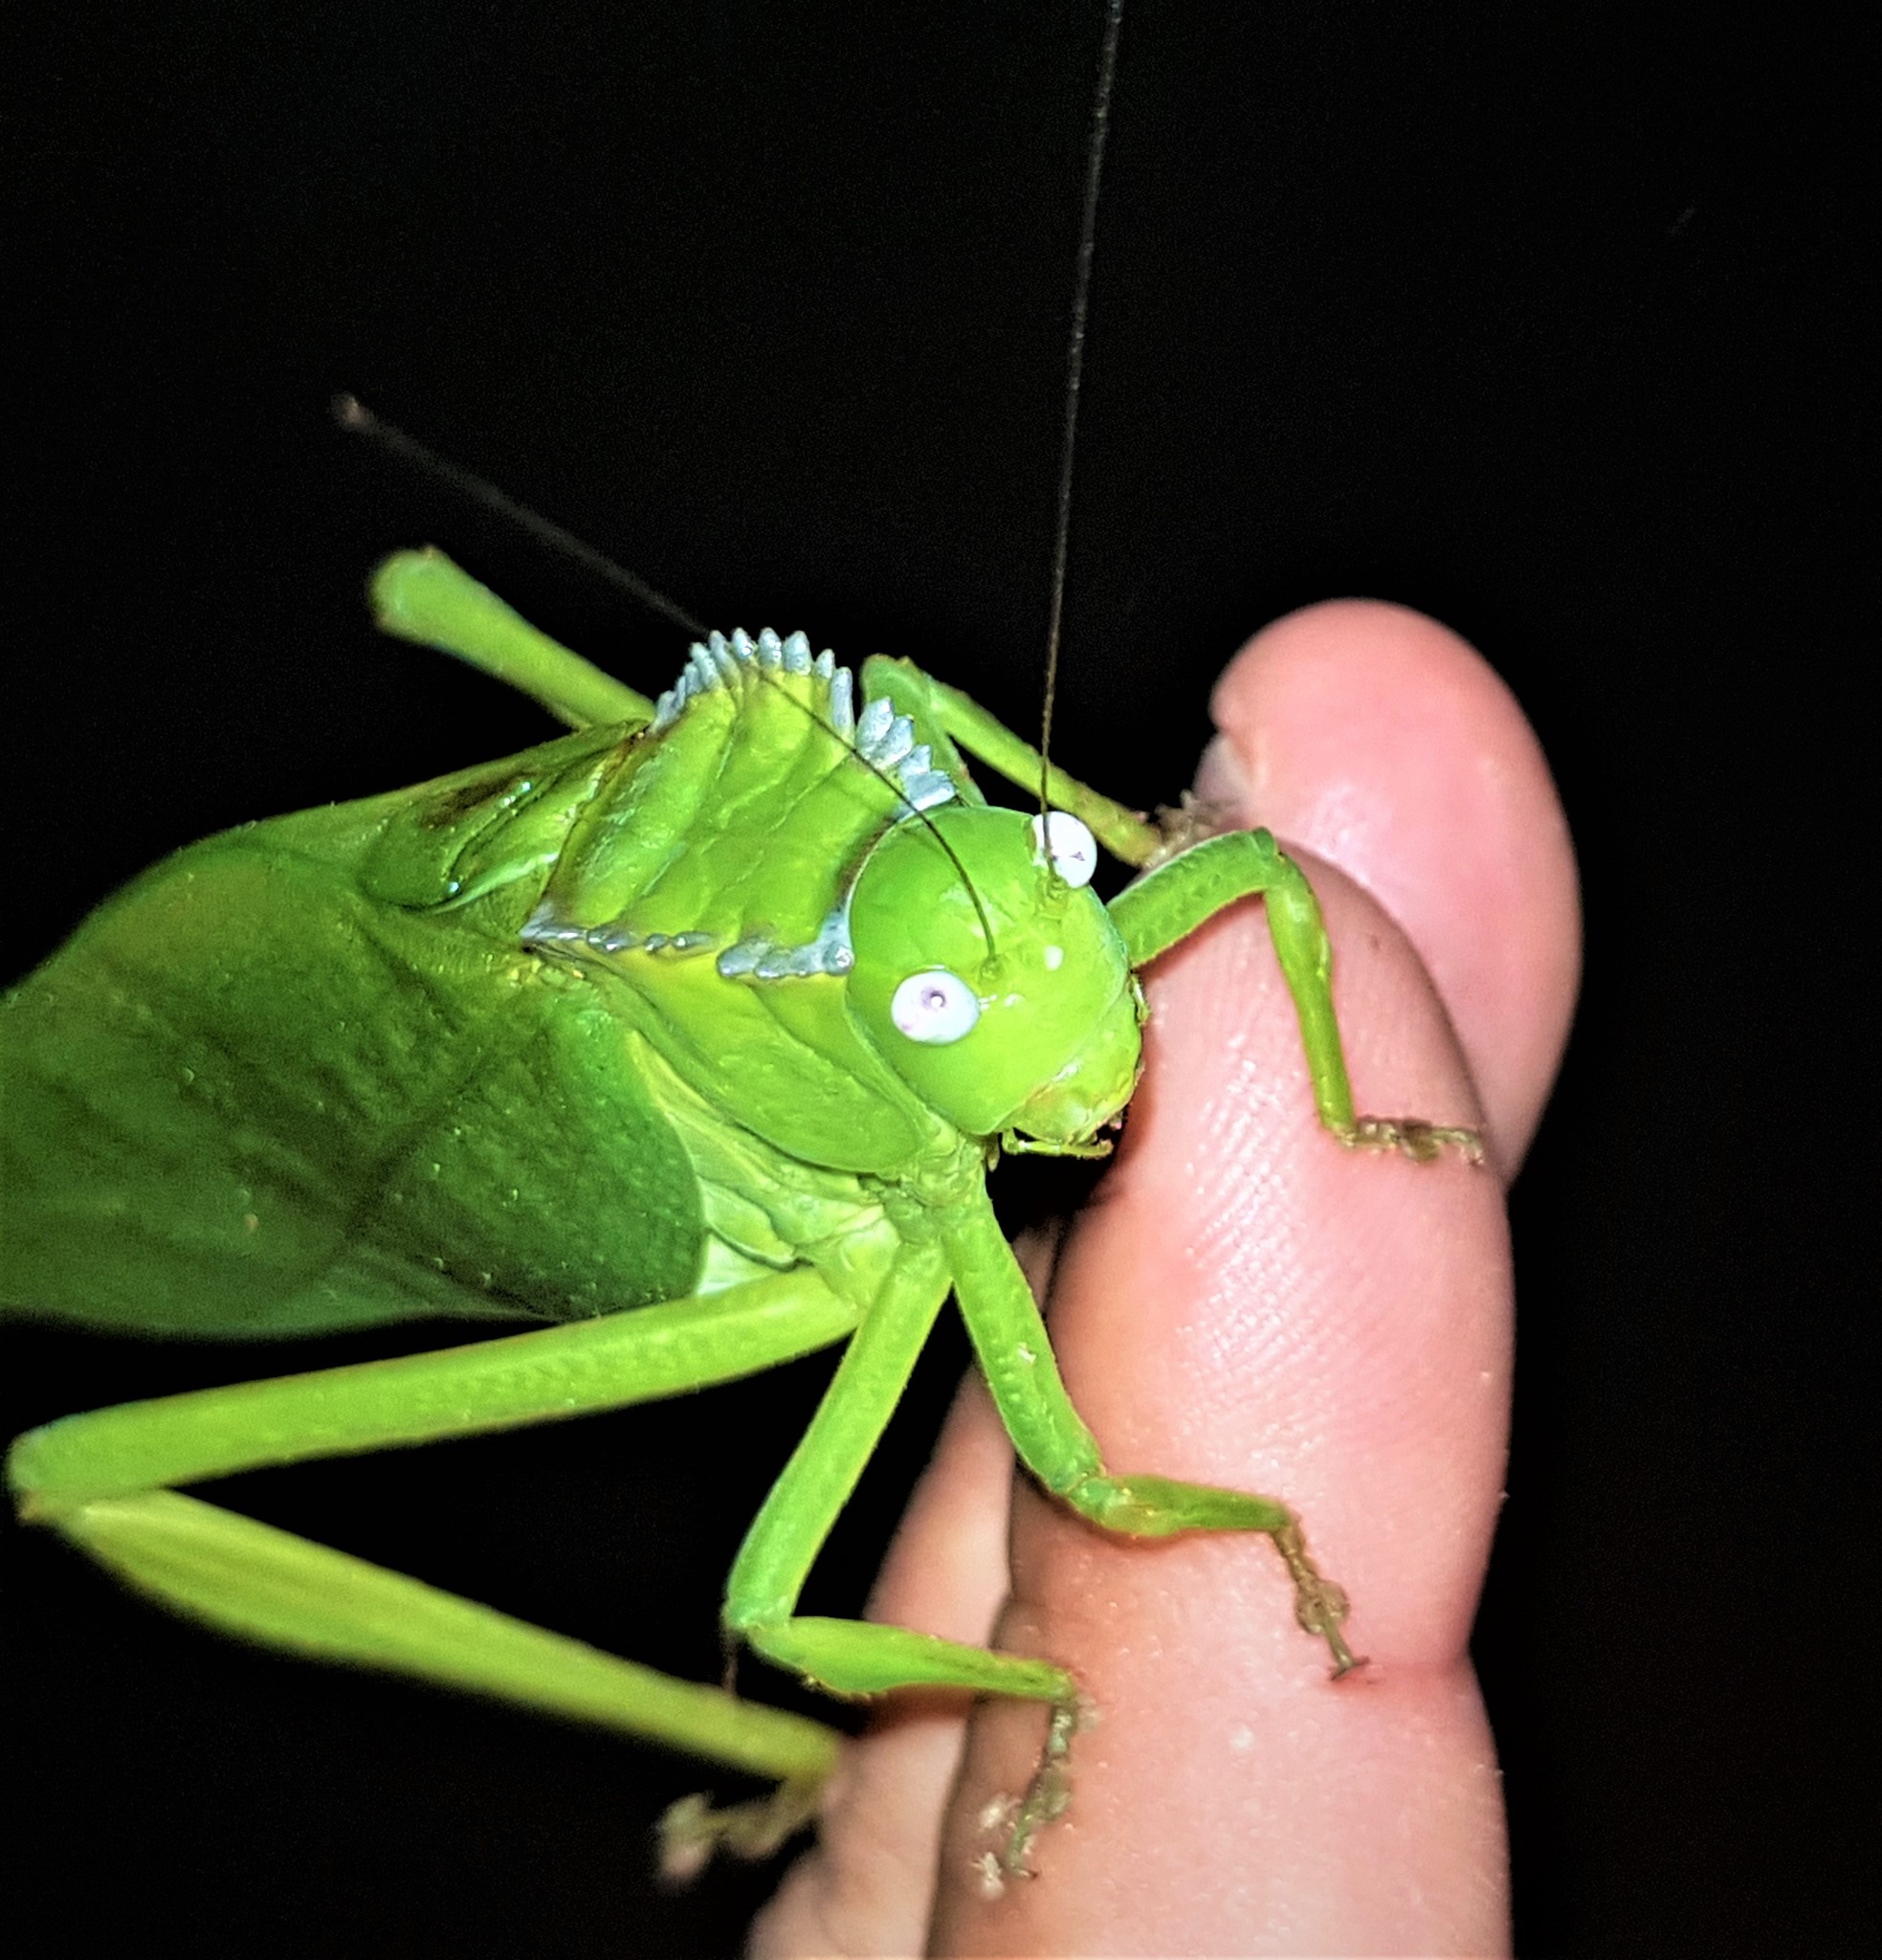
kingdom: Animalia
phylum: Arthropoda
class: Insecta
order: Orthoptera
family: Tettigoniidae
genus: Steirodon
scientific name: Steirodon validum
